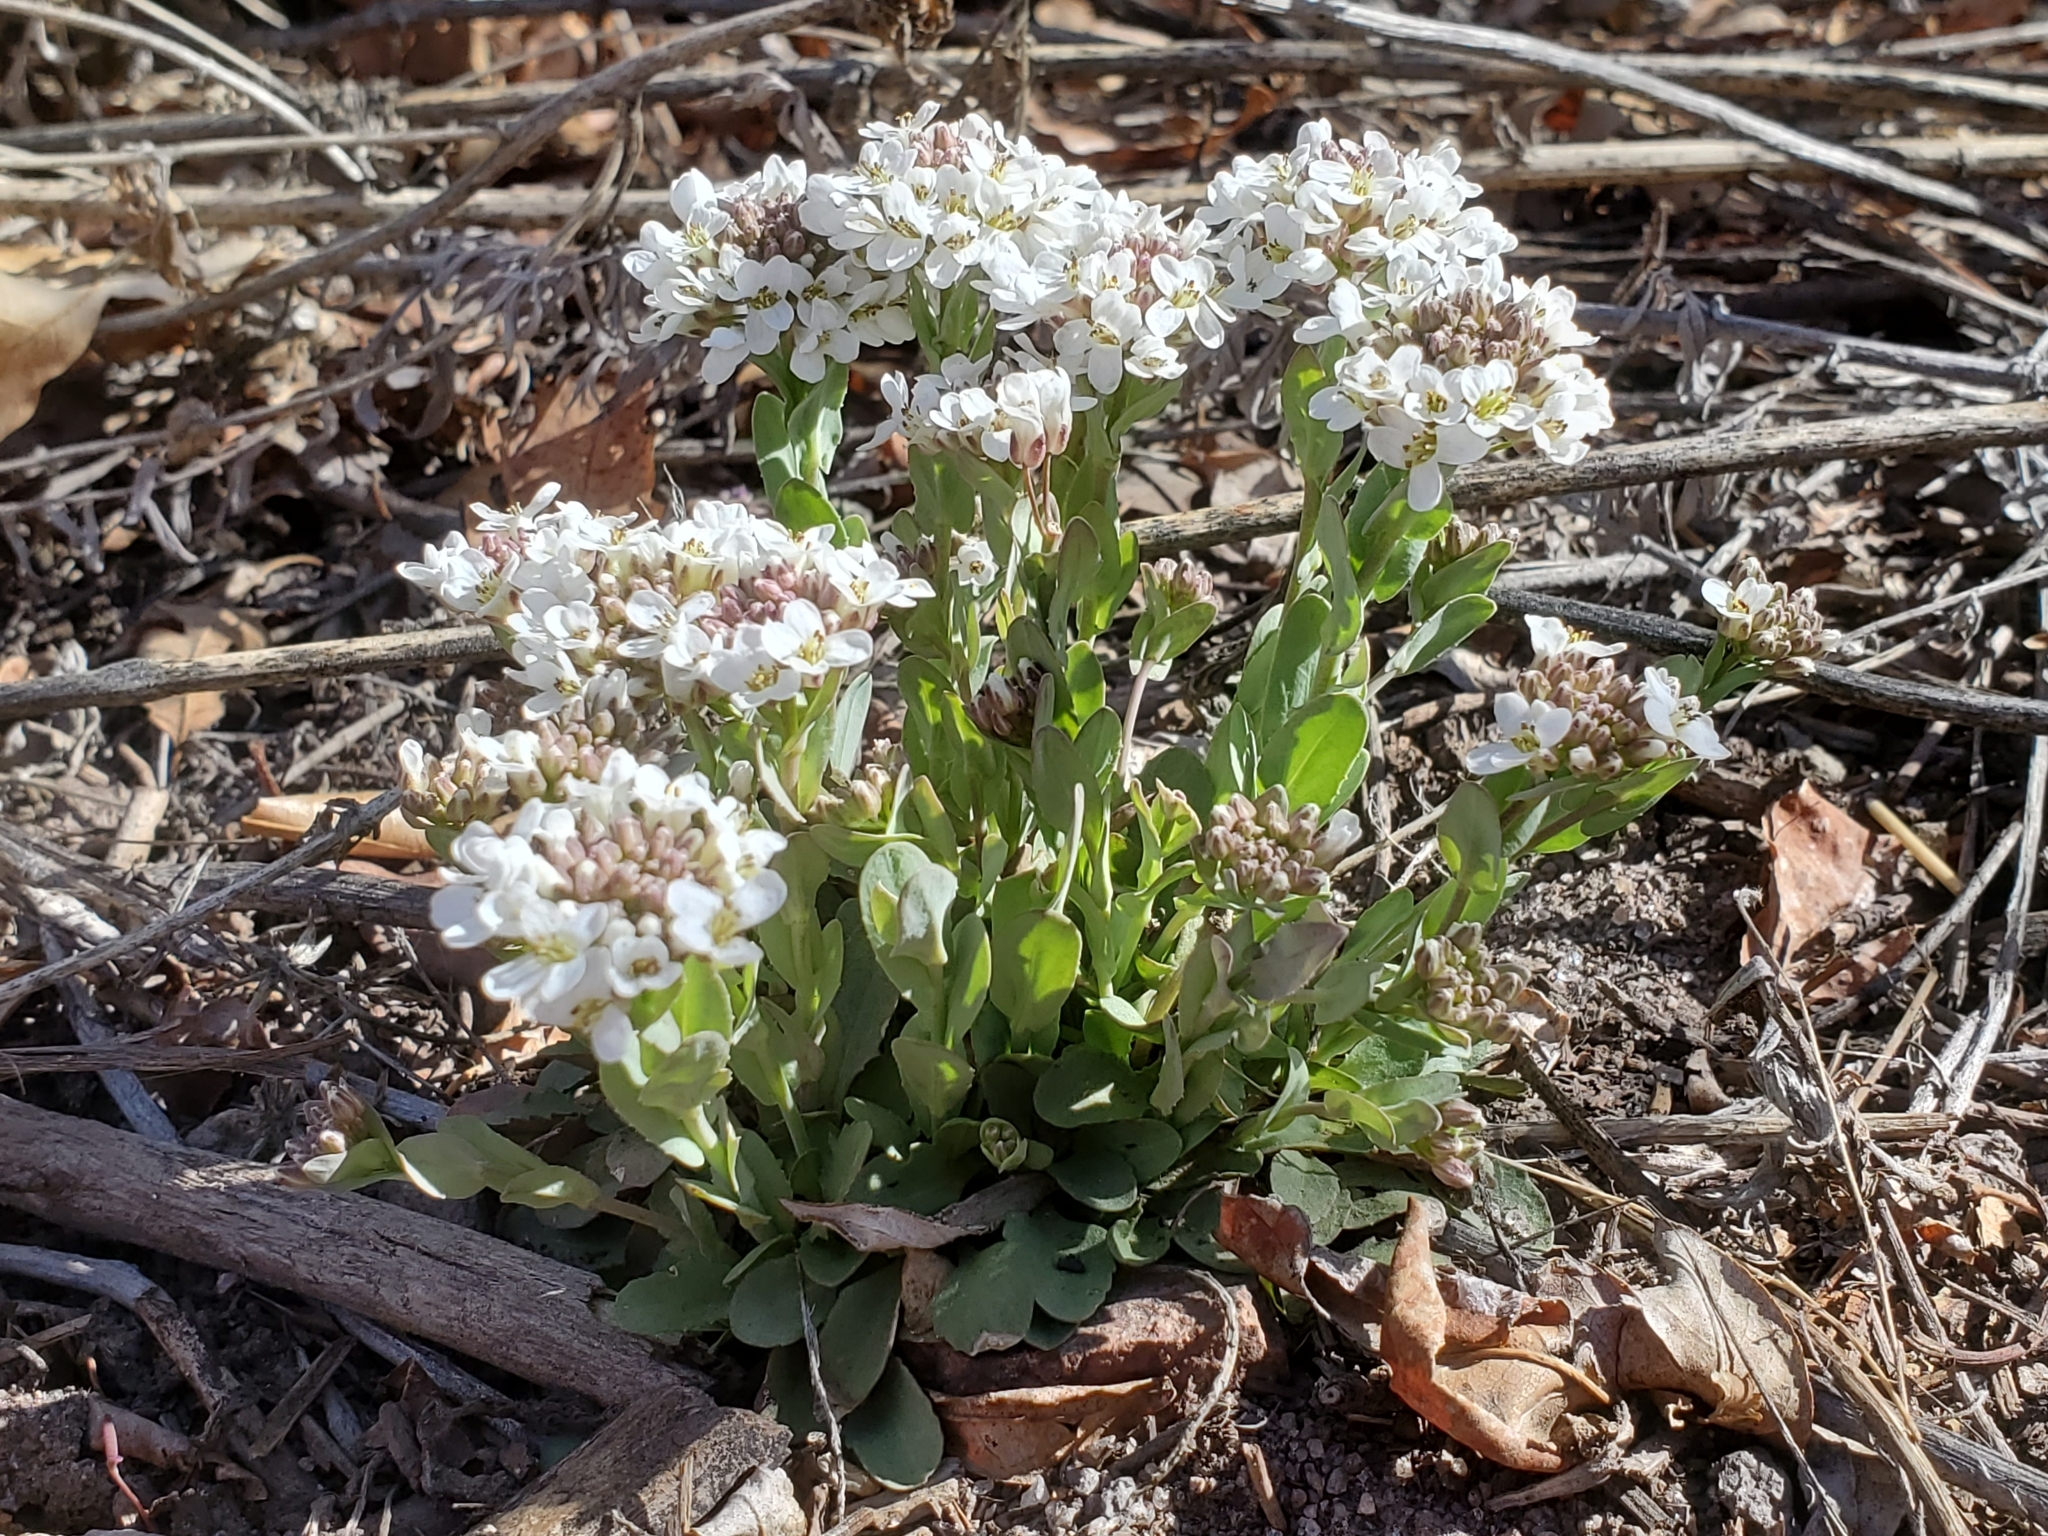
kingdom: Plantae
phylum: Tracheophyta
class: Magnoliopsida
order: Brassicales
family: Brassicaceae
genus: Noccaea
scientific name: Noccaea fendleri
